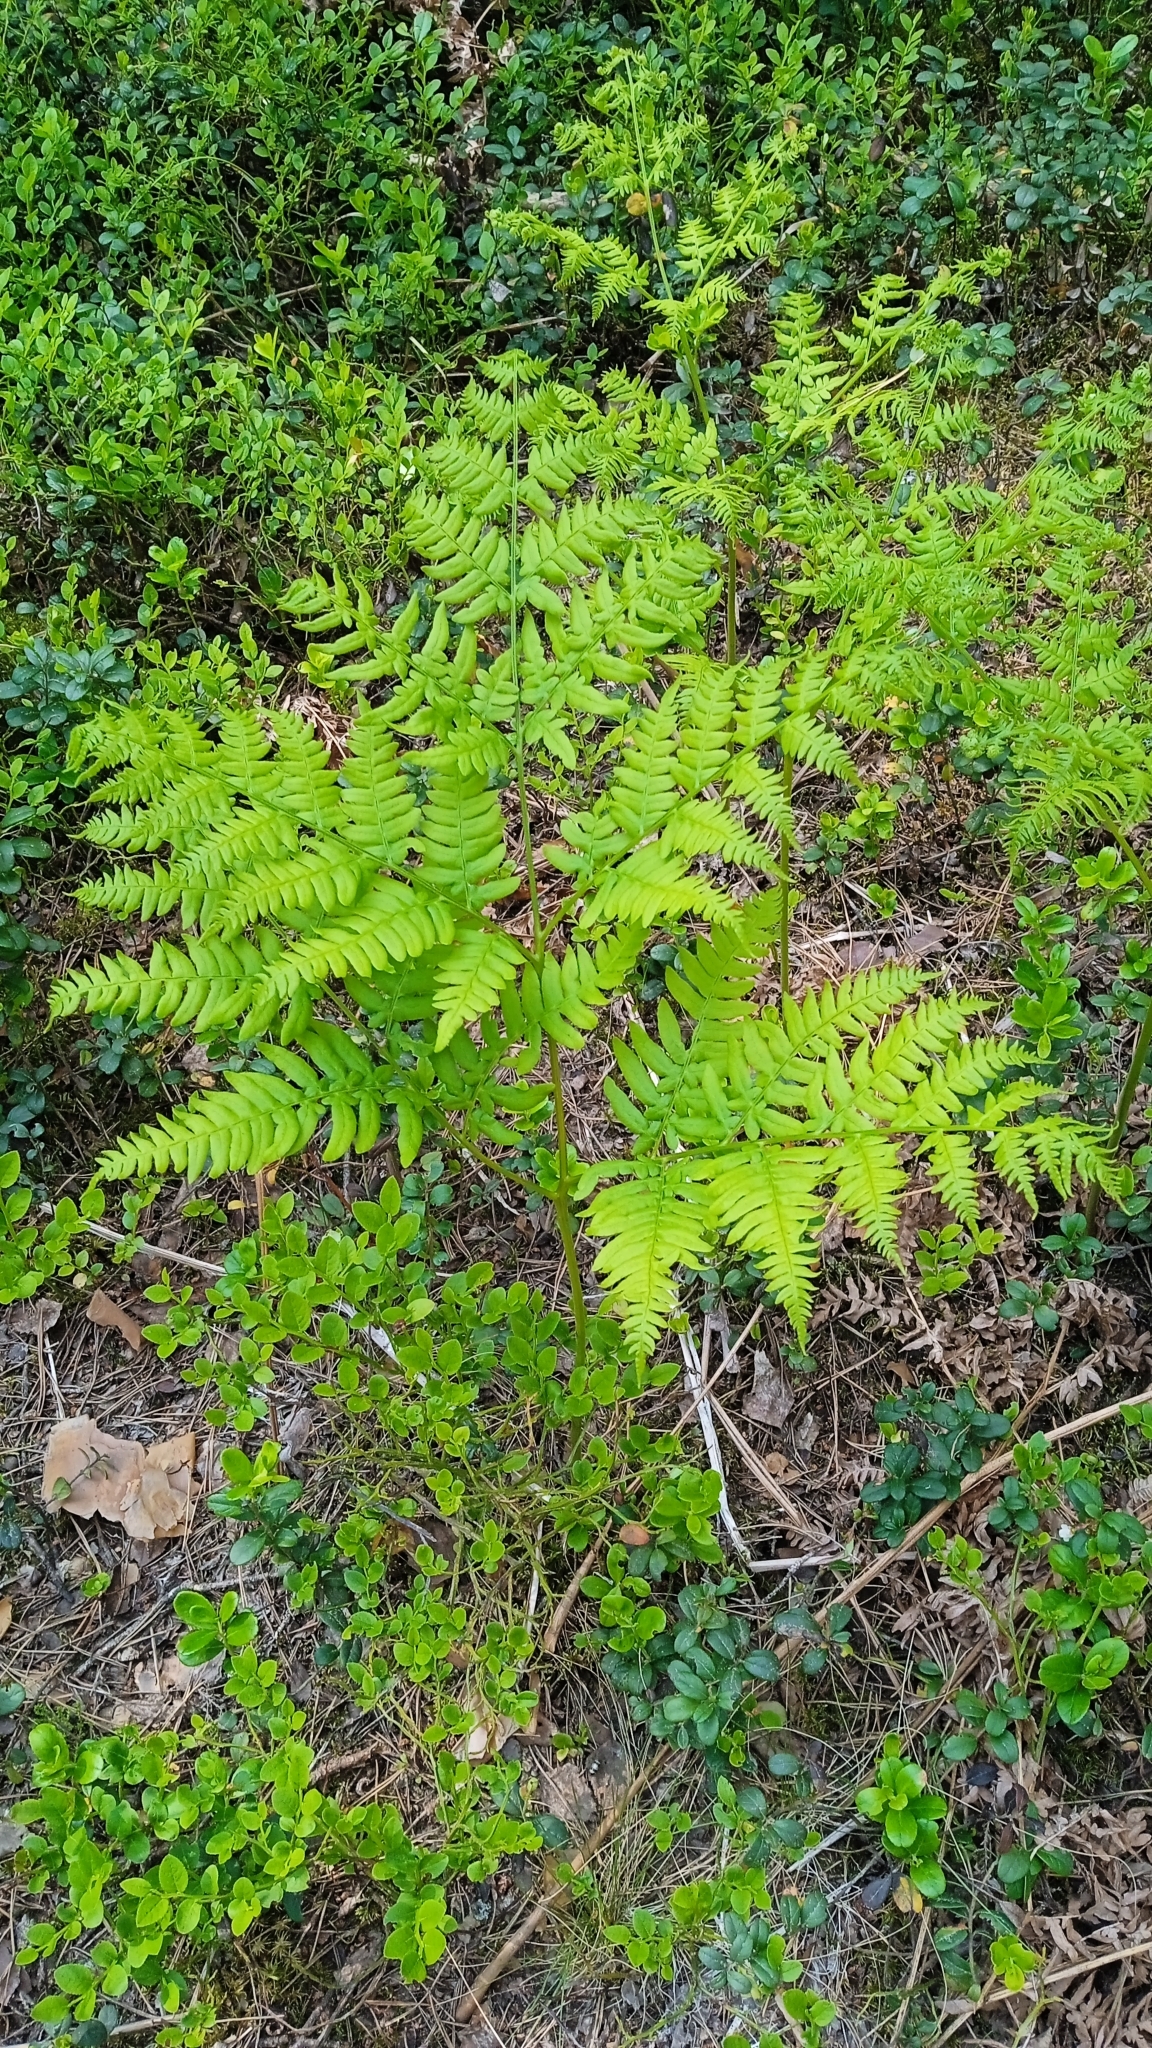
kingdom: Plantae
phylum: Tracheophyta
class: Polypodiopsida
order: Polypodiales
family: Dennstaedtiaceae
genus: Pteridium
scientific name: Pteridium aquilinum
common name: Bracken
